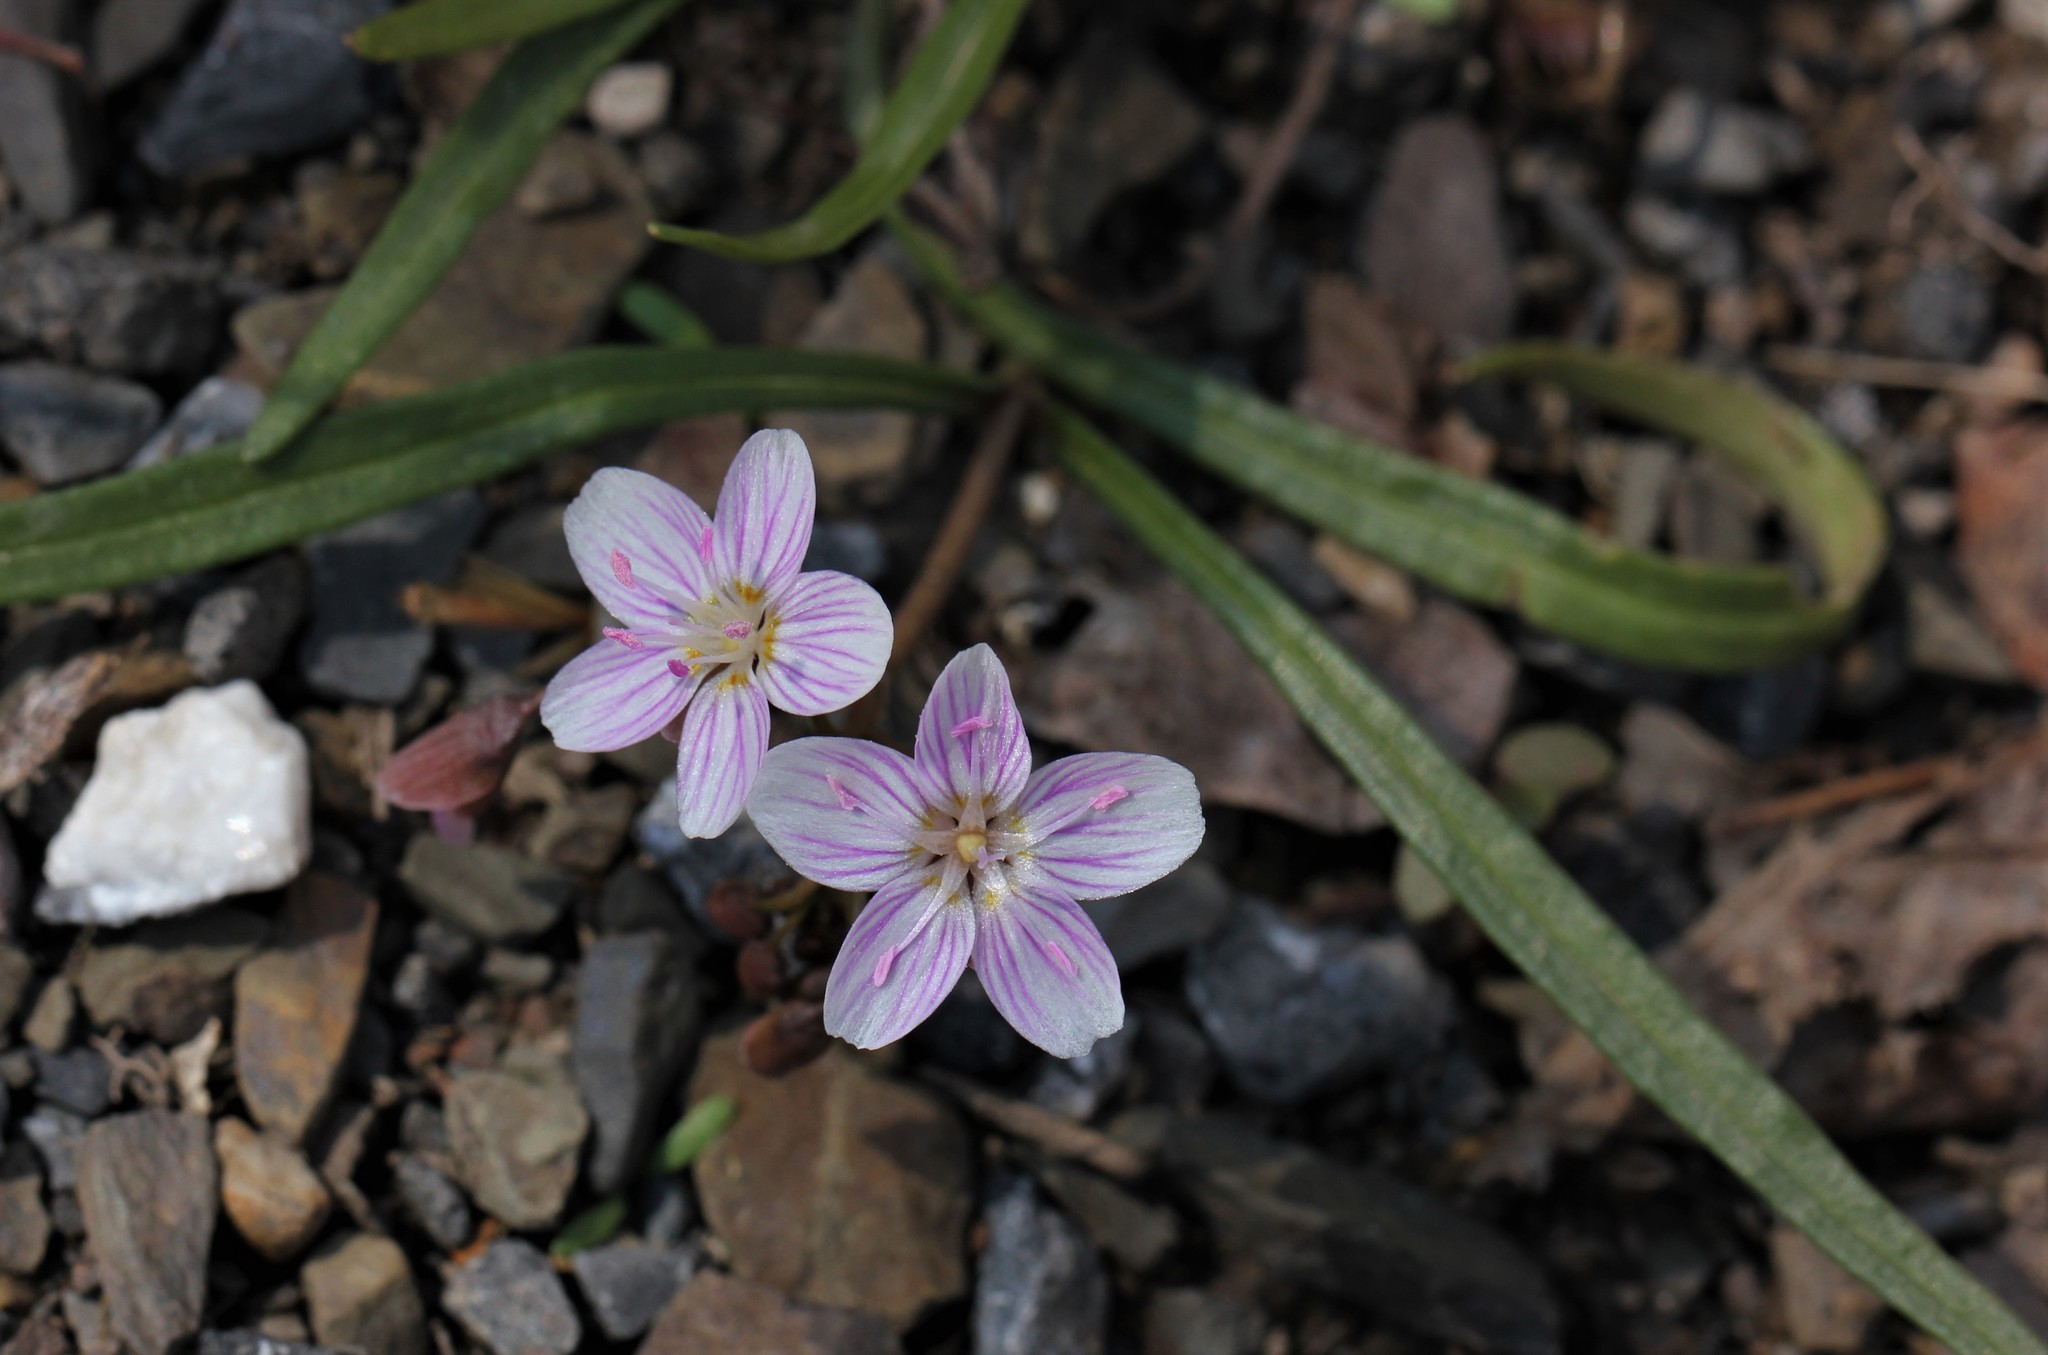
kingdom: Plantae
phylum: Tracheophyta
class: Magnoliopsida
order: Caryophyllales
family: Montiaceae
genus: Claytonia
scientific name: Claytonia virginica
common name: Virginia springbeauty
